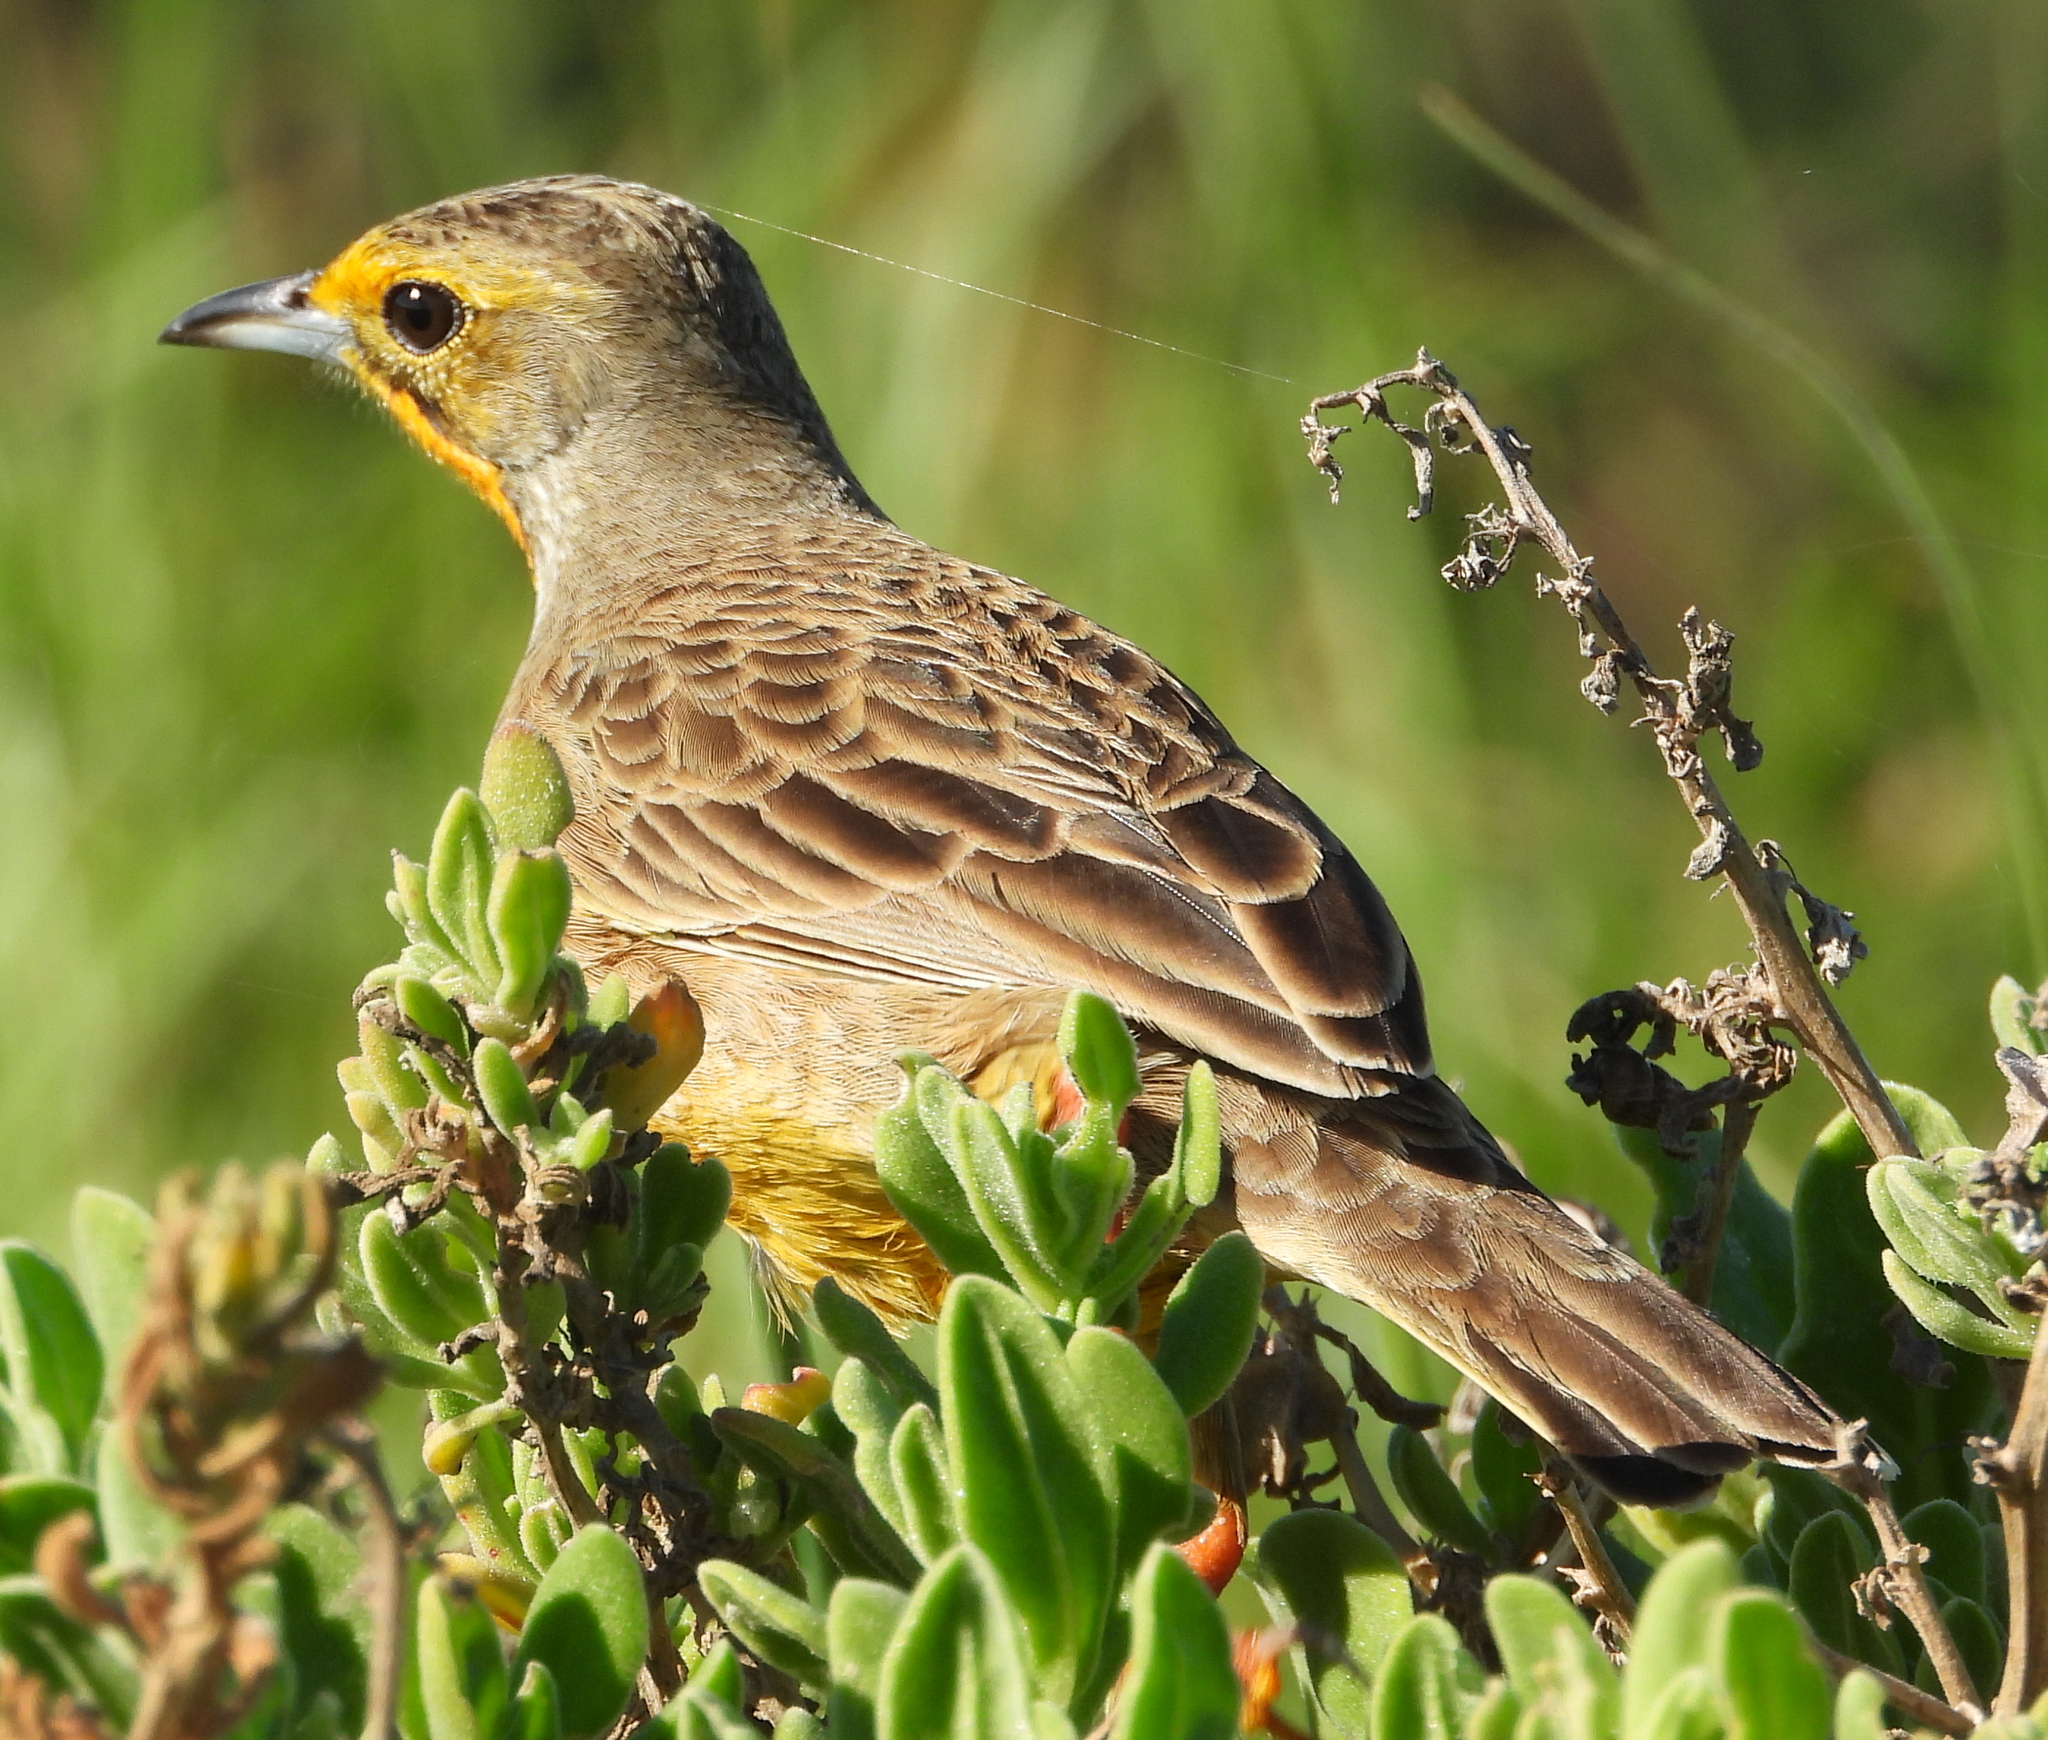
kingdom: Animalia
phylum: Chordata
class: Aves
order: Passeriformes
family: Motacillidae
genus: Macronyx
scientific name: Macronyx capensis
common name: Cape longclaw
